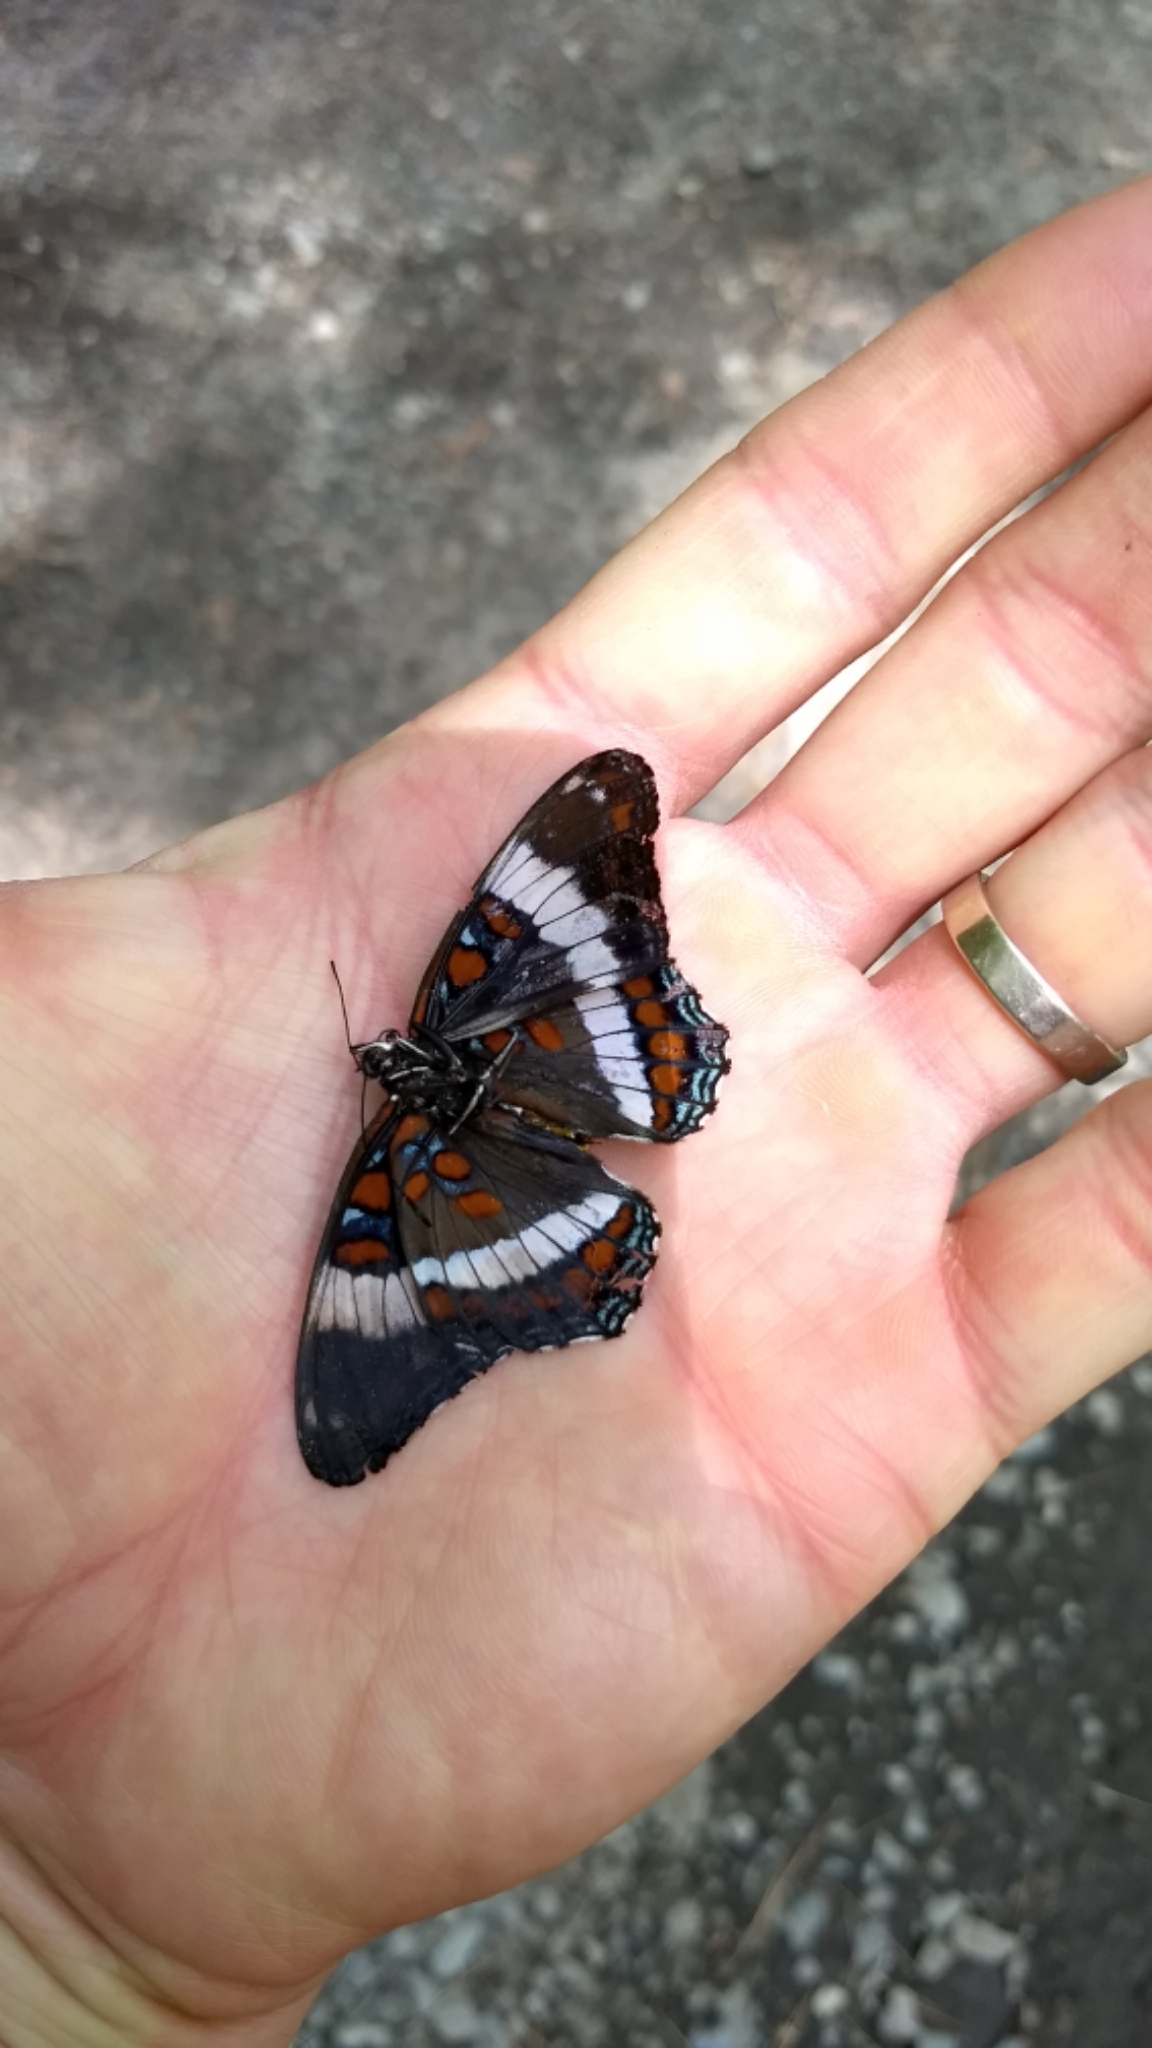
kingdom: Animalia
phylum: Arthropoda
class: Insecta
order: Lepidoptera
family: Nymphalidae
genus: Limenitis
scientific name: Limenitis arthemis
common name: Red-spotted admiral
